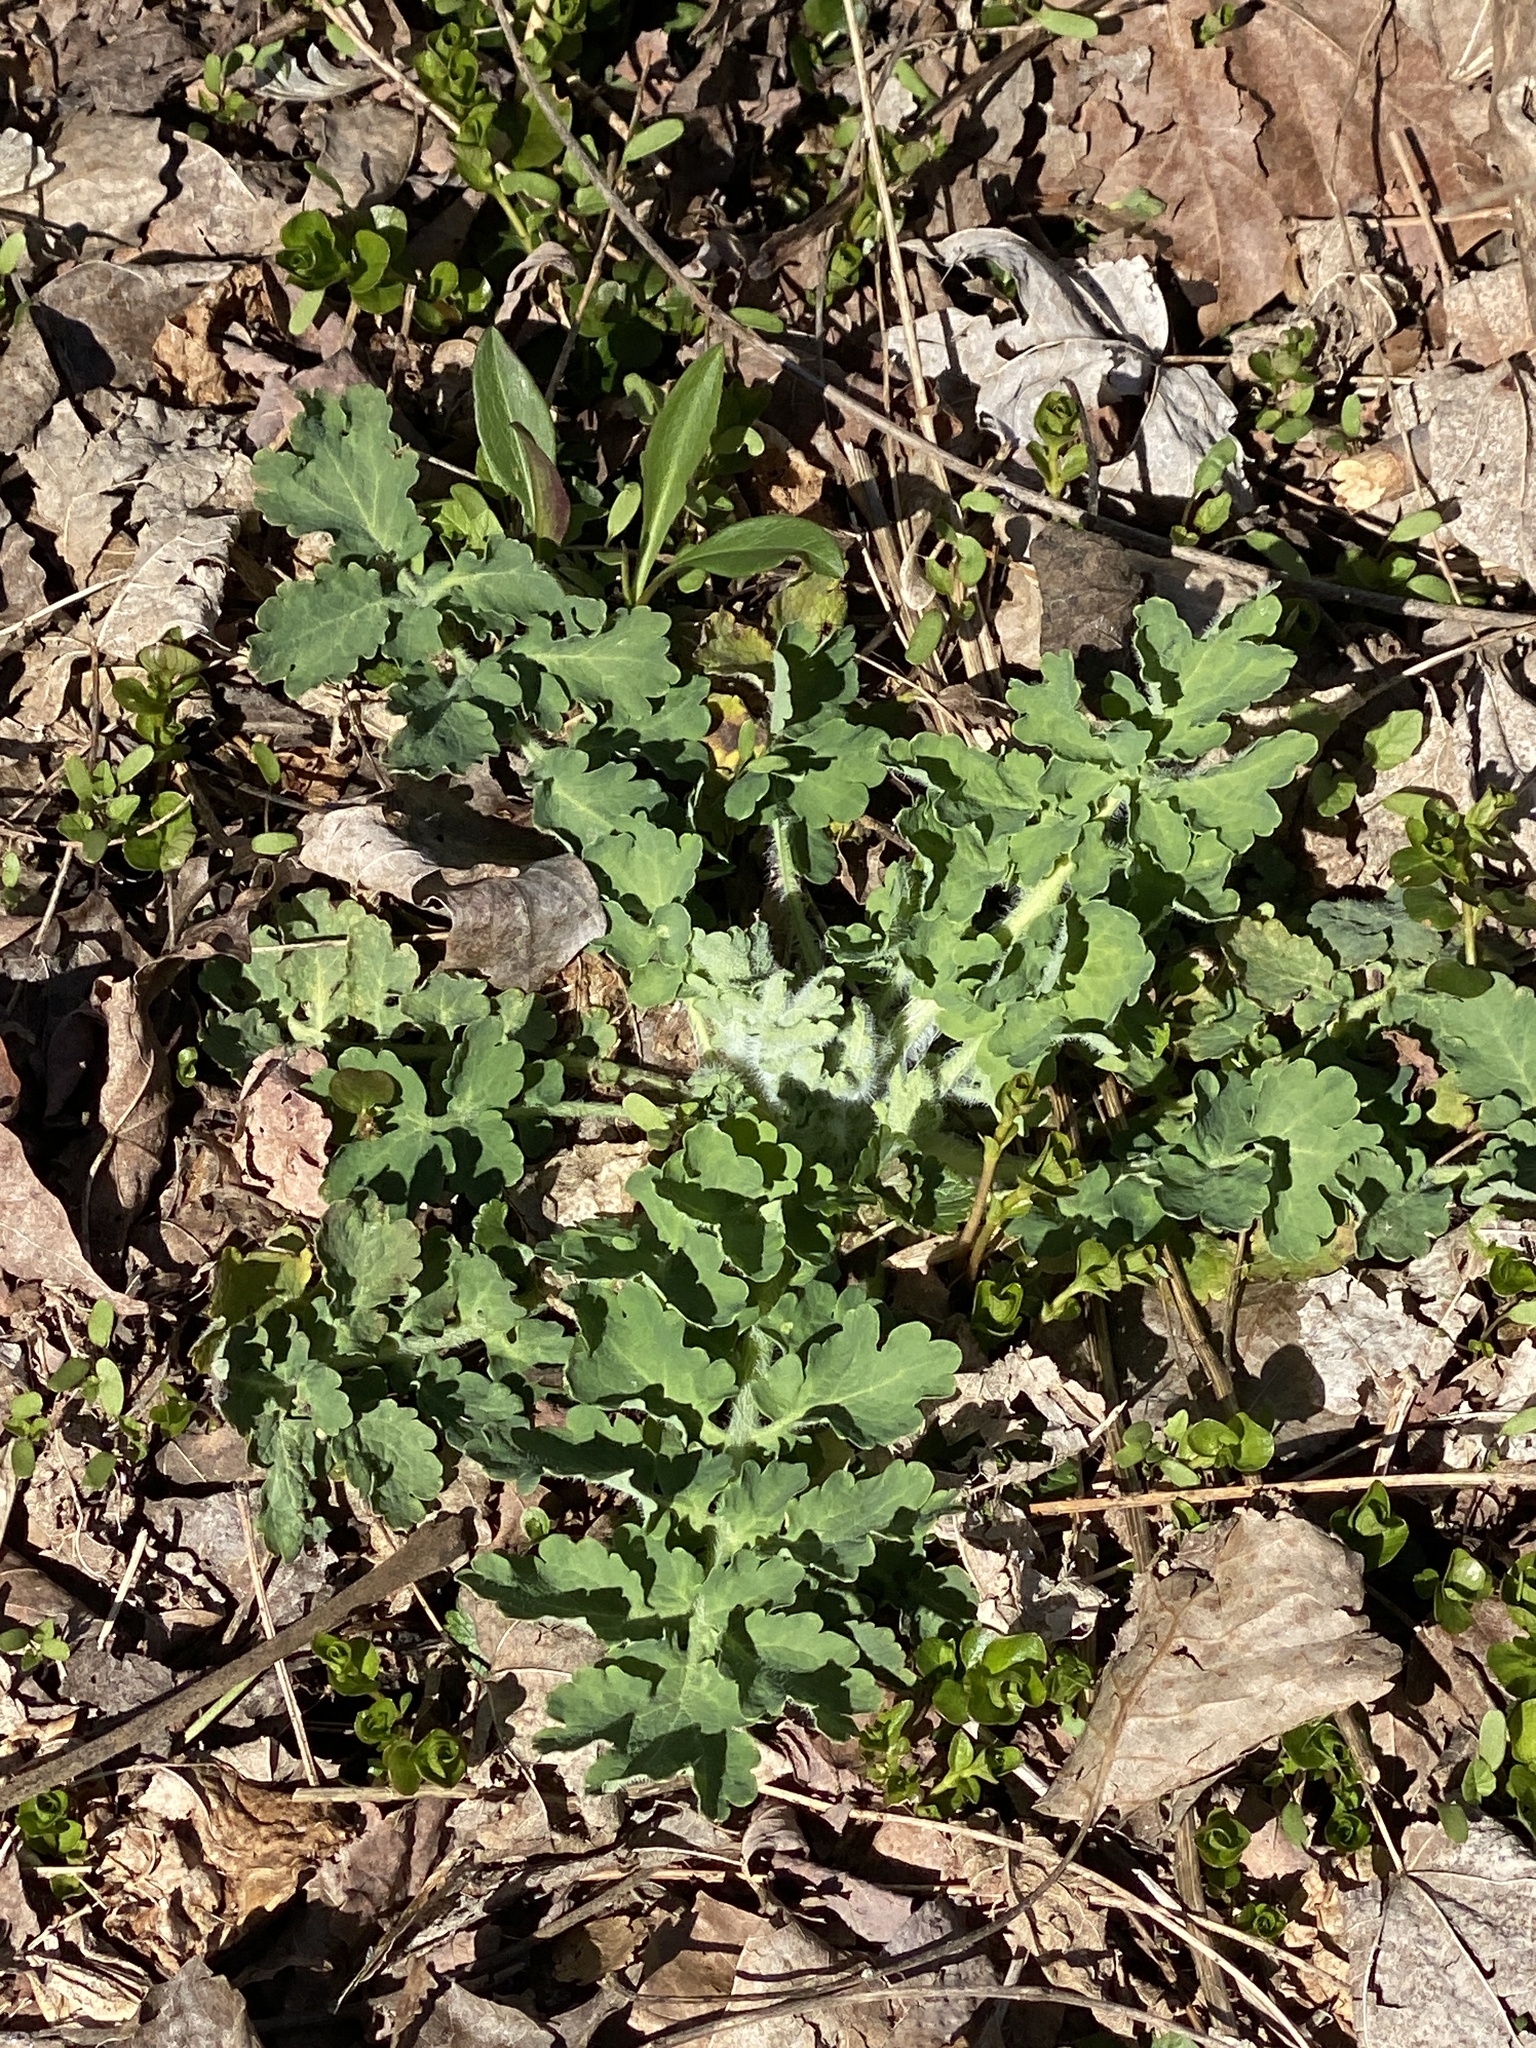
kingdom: Plantae
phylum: Tracheophyta
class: Magnoliopsida
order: Ranunculales
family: Papaveraceae
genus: Chelidonium
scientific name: Chelidonium majus
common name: Greater celandine
